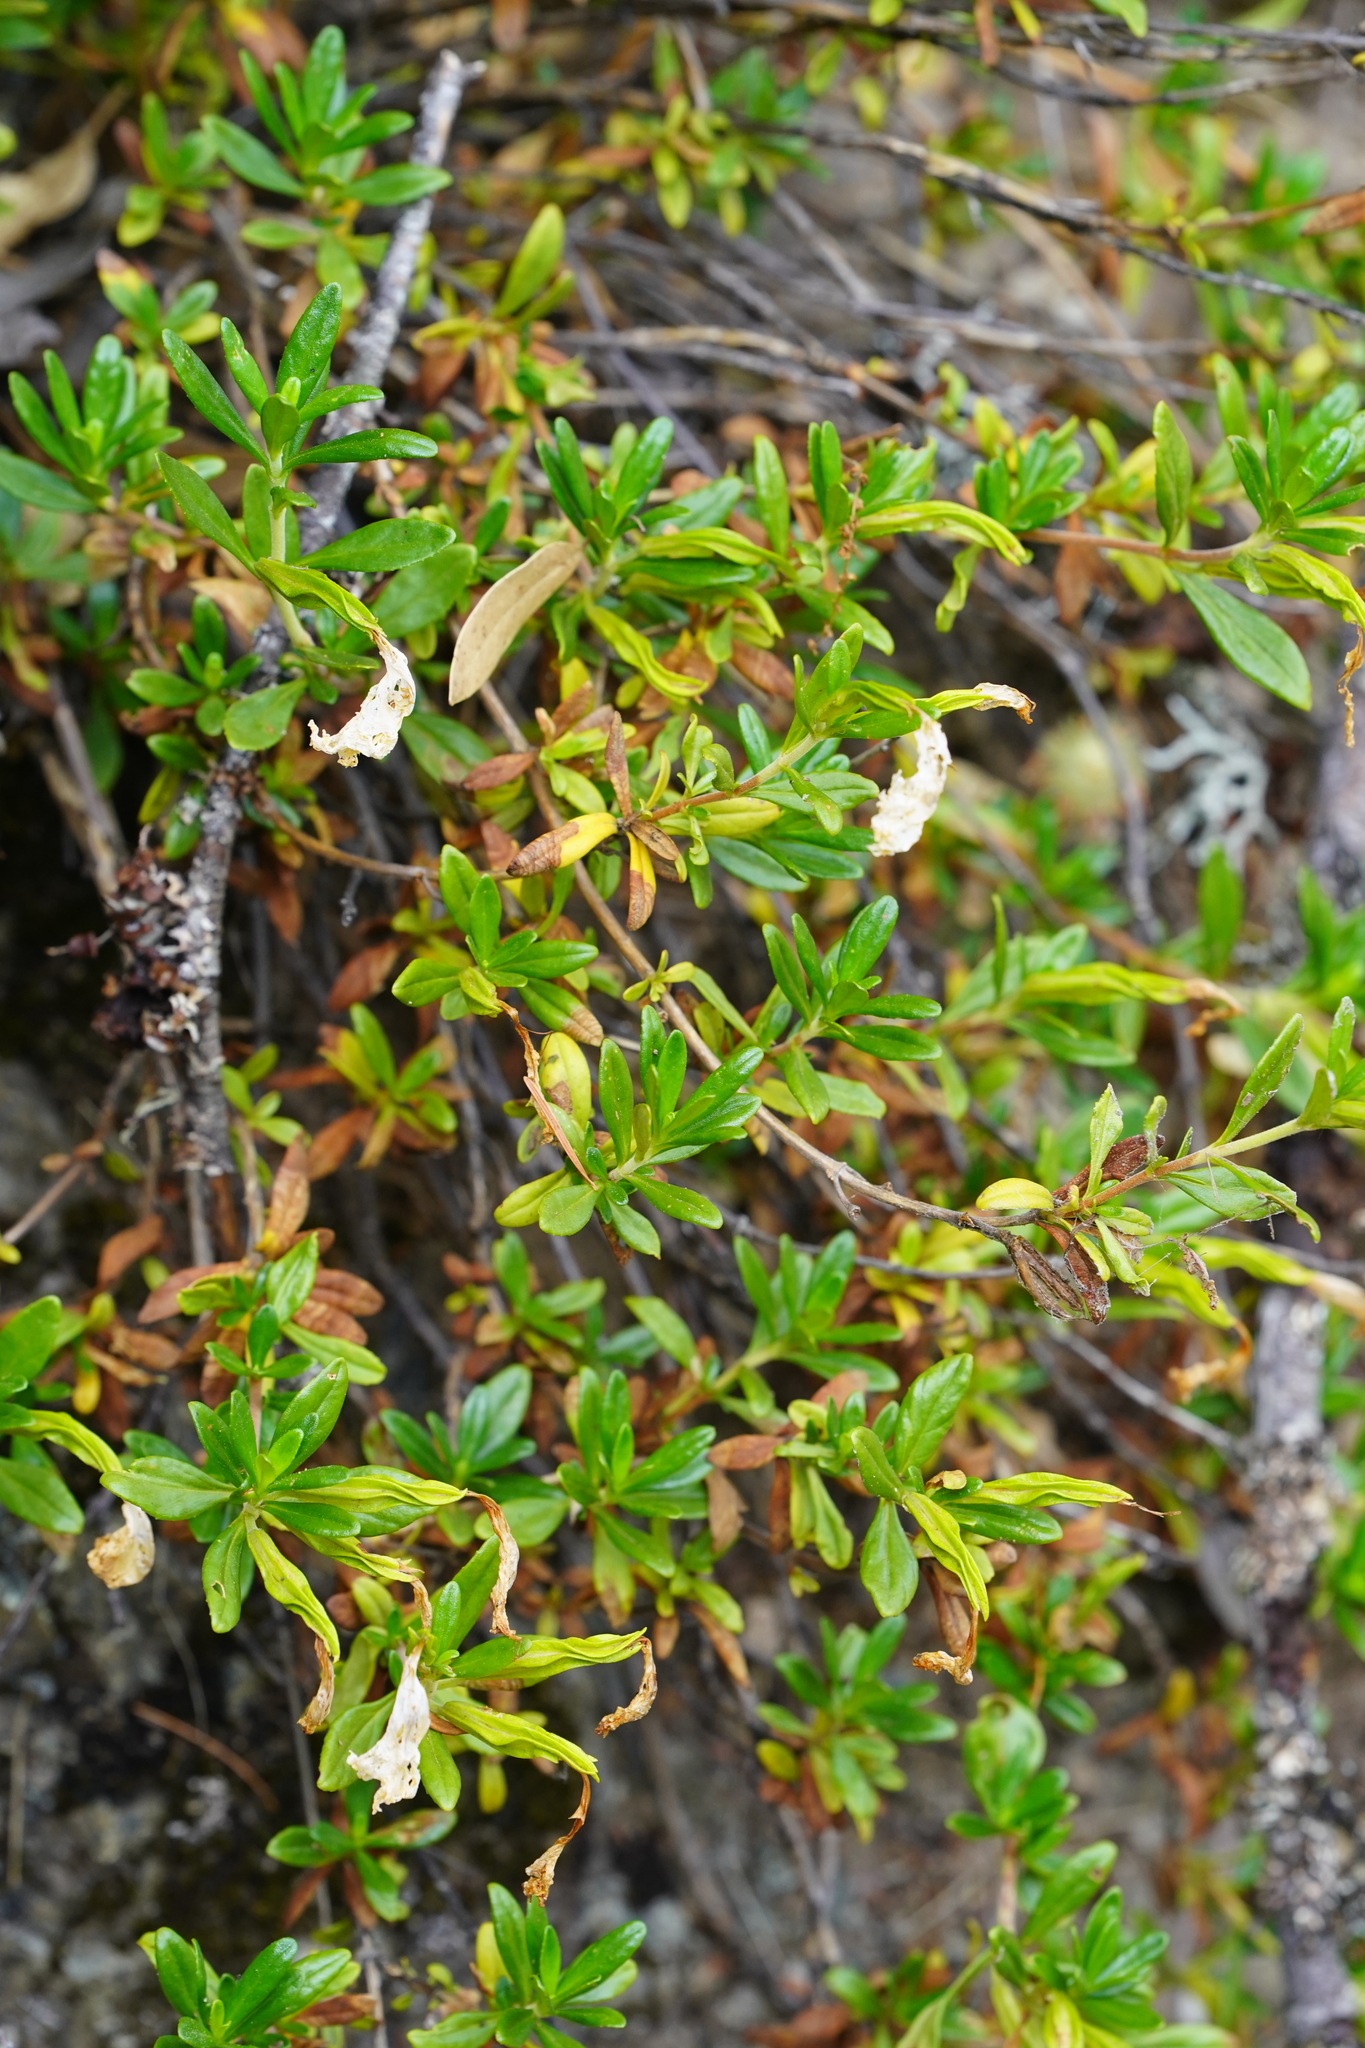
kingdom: Plantae
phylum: Tracheophyta
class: Magnoliopsida
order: Lamiales
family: Phrymaceae
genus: Diplacus
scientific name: Diplacus grandiflorus
